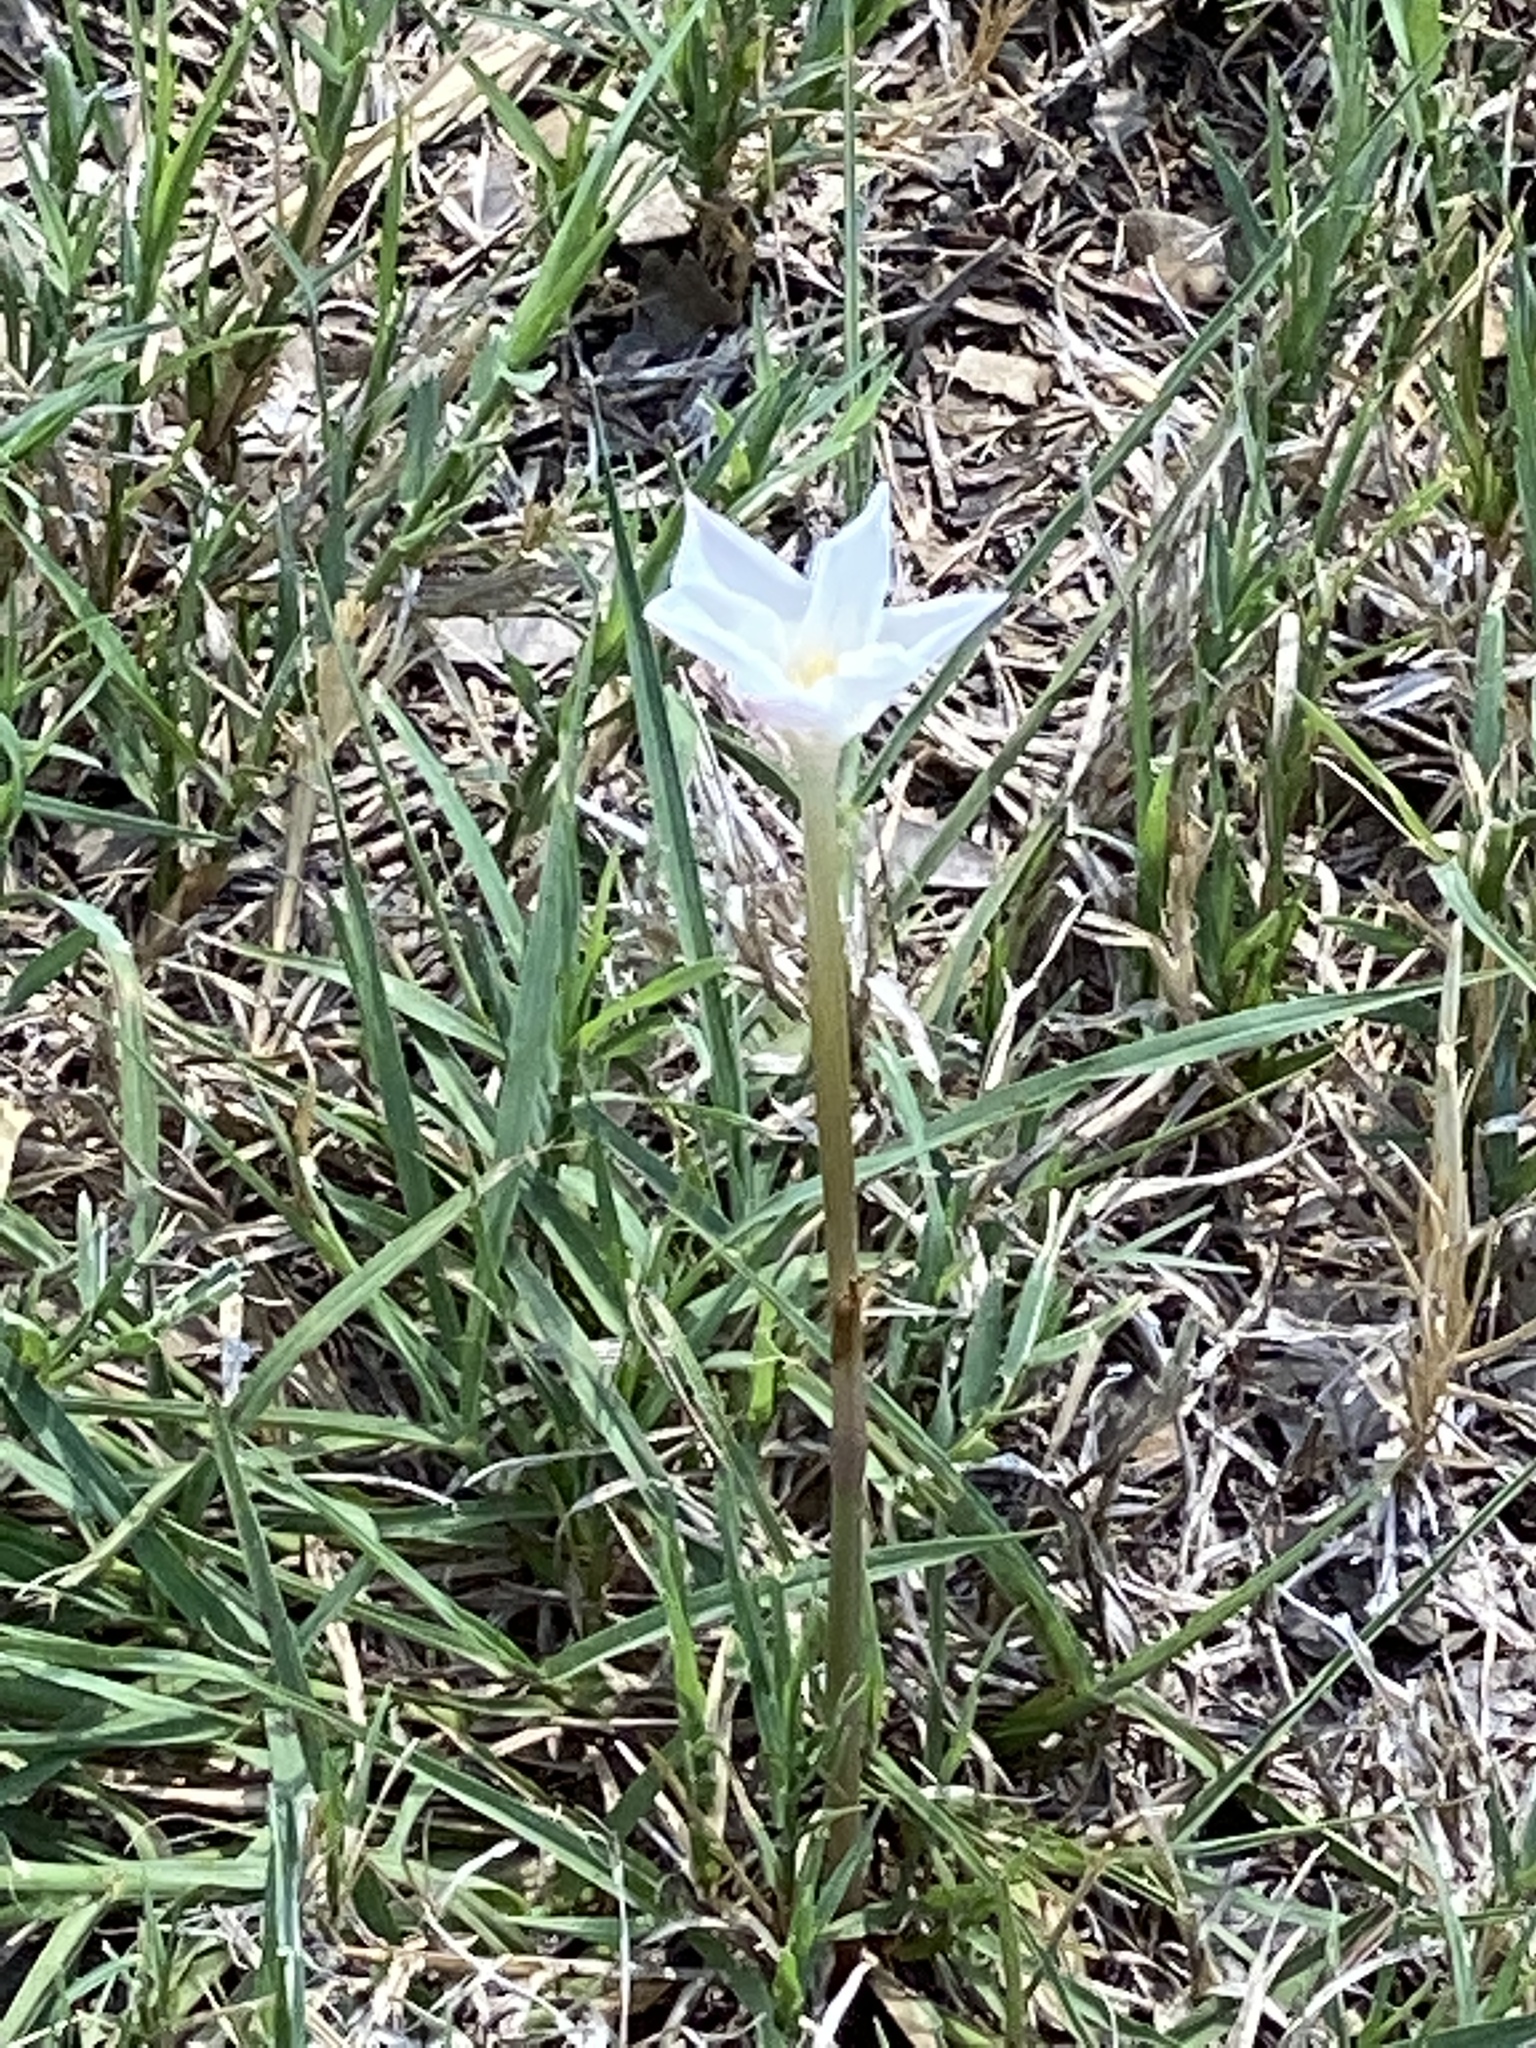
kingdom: Plantae
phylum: Tracheophyta
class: Liliopsida
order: Asparagales
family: Amaryllidaceae
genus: Zephyranthes
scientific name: Zephyranthes chlorosolen
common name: Evening rain-lily
